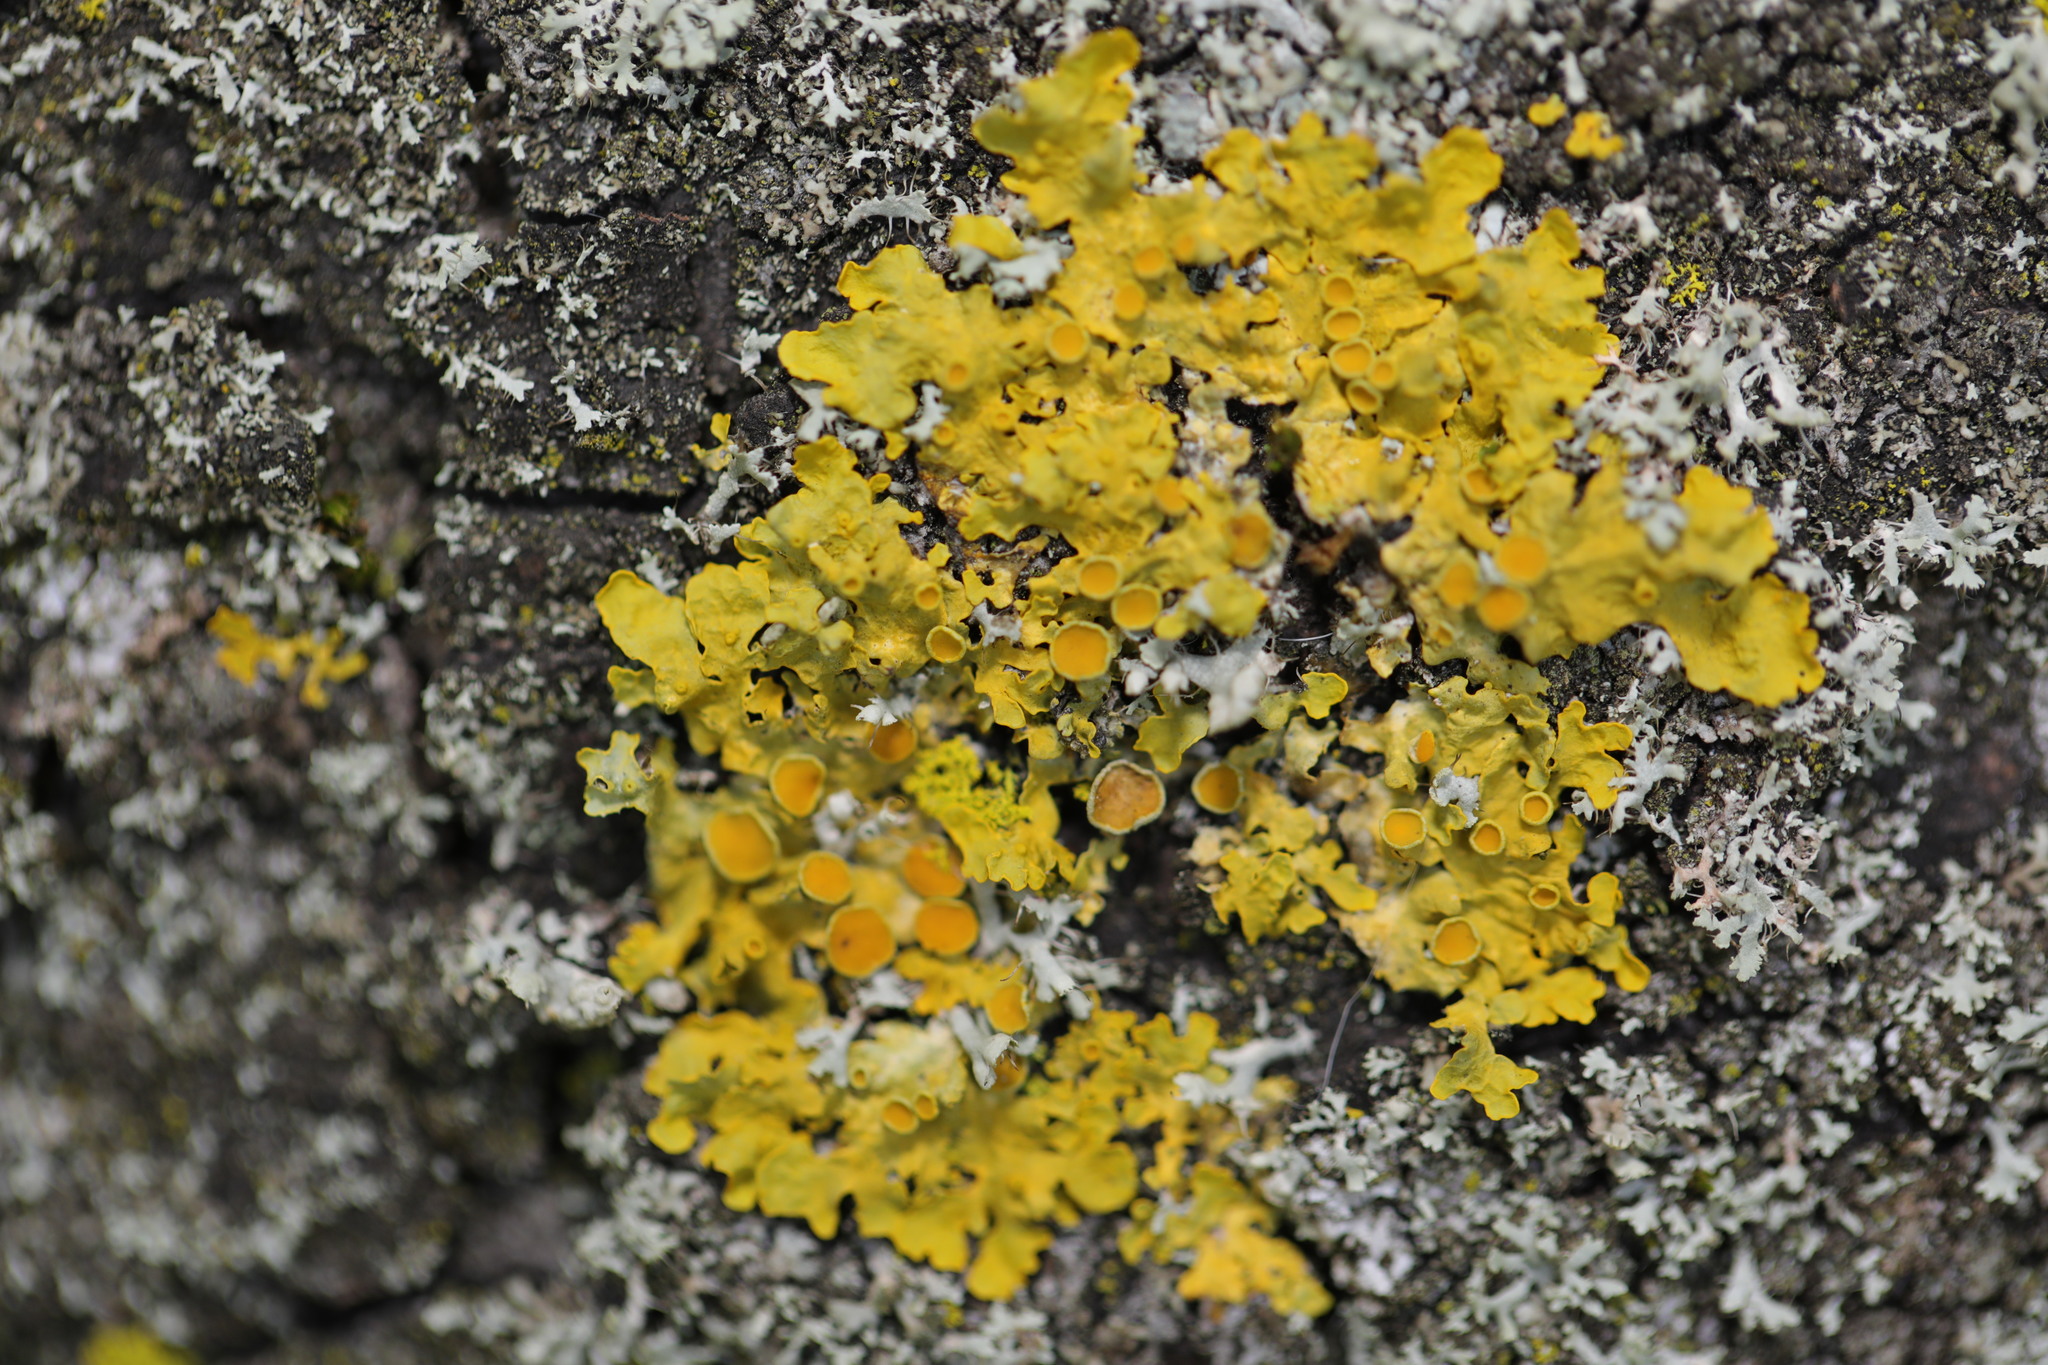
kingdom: Fungi
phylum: Ascomycota
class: Lecanoromycetes
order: Teloschistales
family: Teloschistaceae
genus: Xanthoria
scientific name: Xanthoria parietina
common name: Common orange lichen
